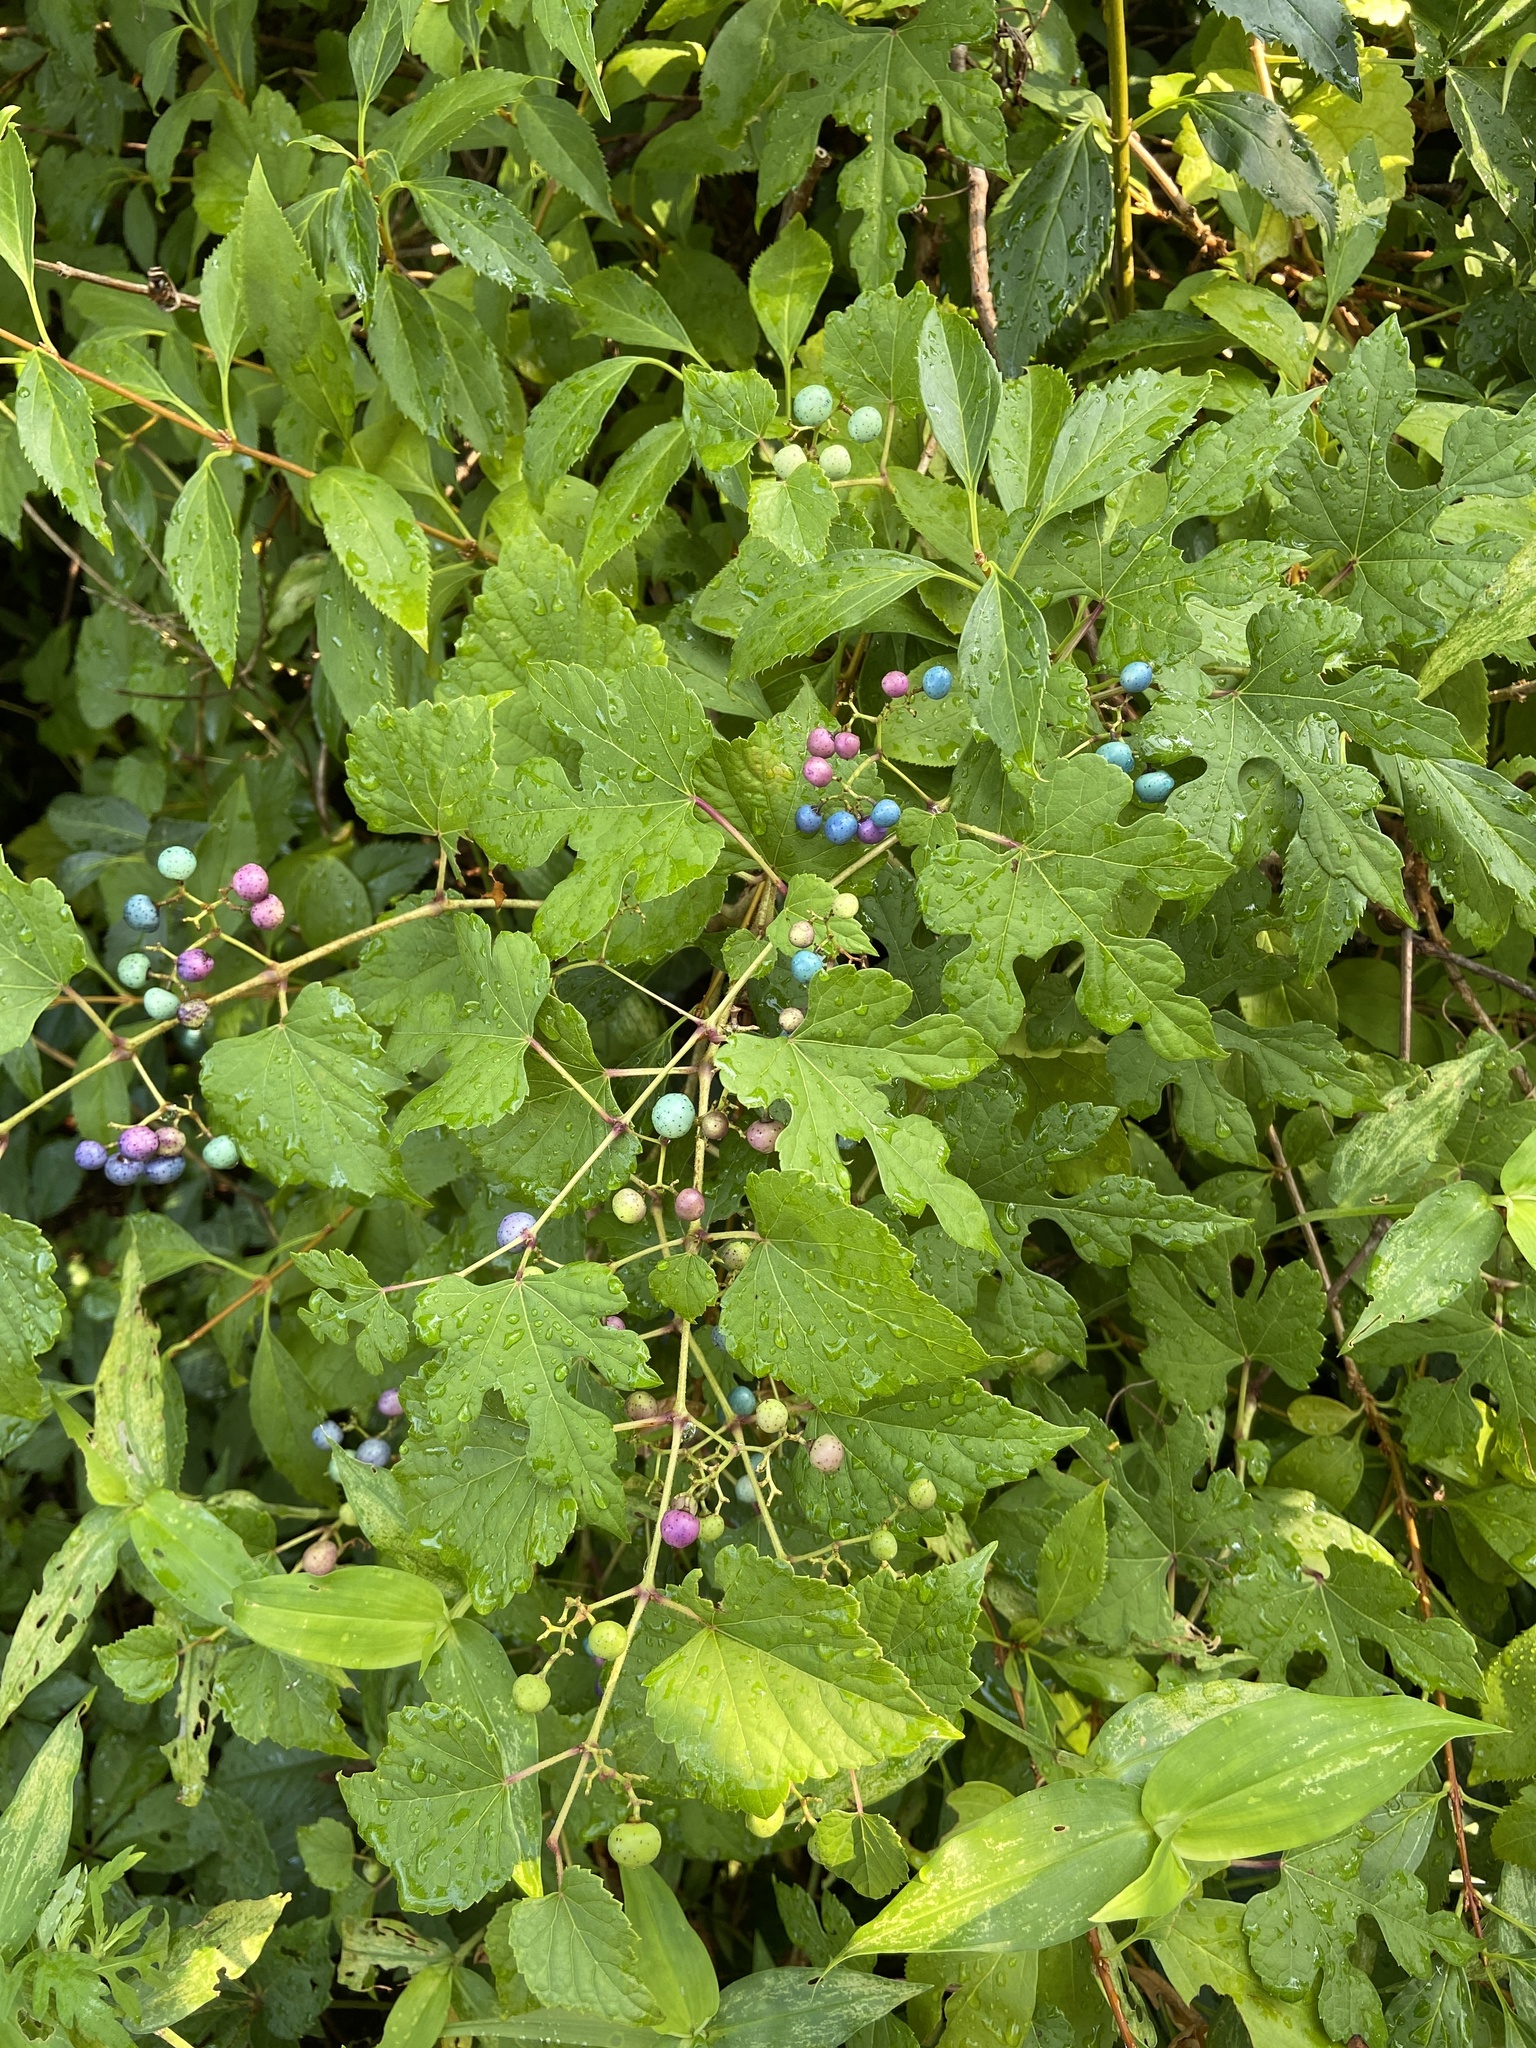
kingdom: Plantae
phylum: Tracheophyta
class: Magnoliopsida
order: Vitales
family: Vitaceae
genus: Ampelopsis
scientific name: Ampelopsis glandulosa
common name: Amur peppervine
